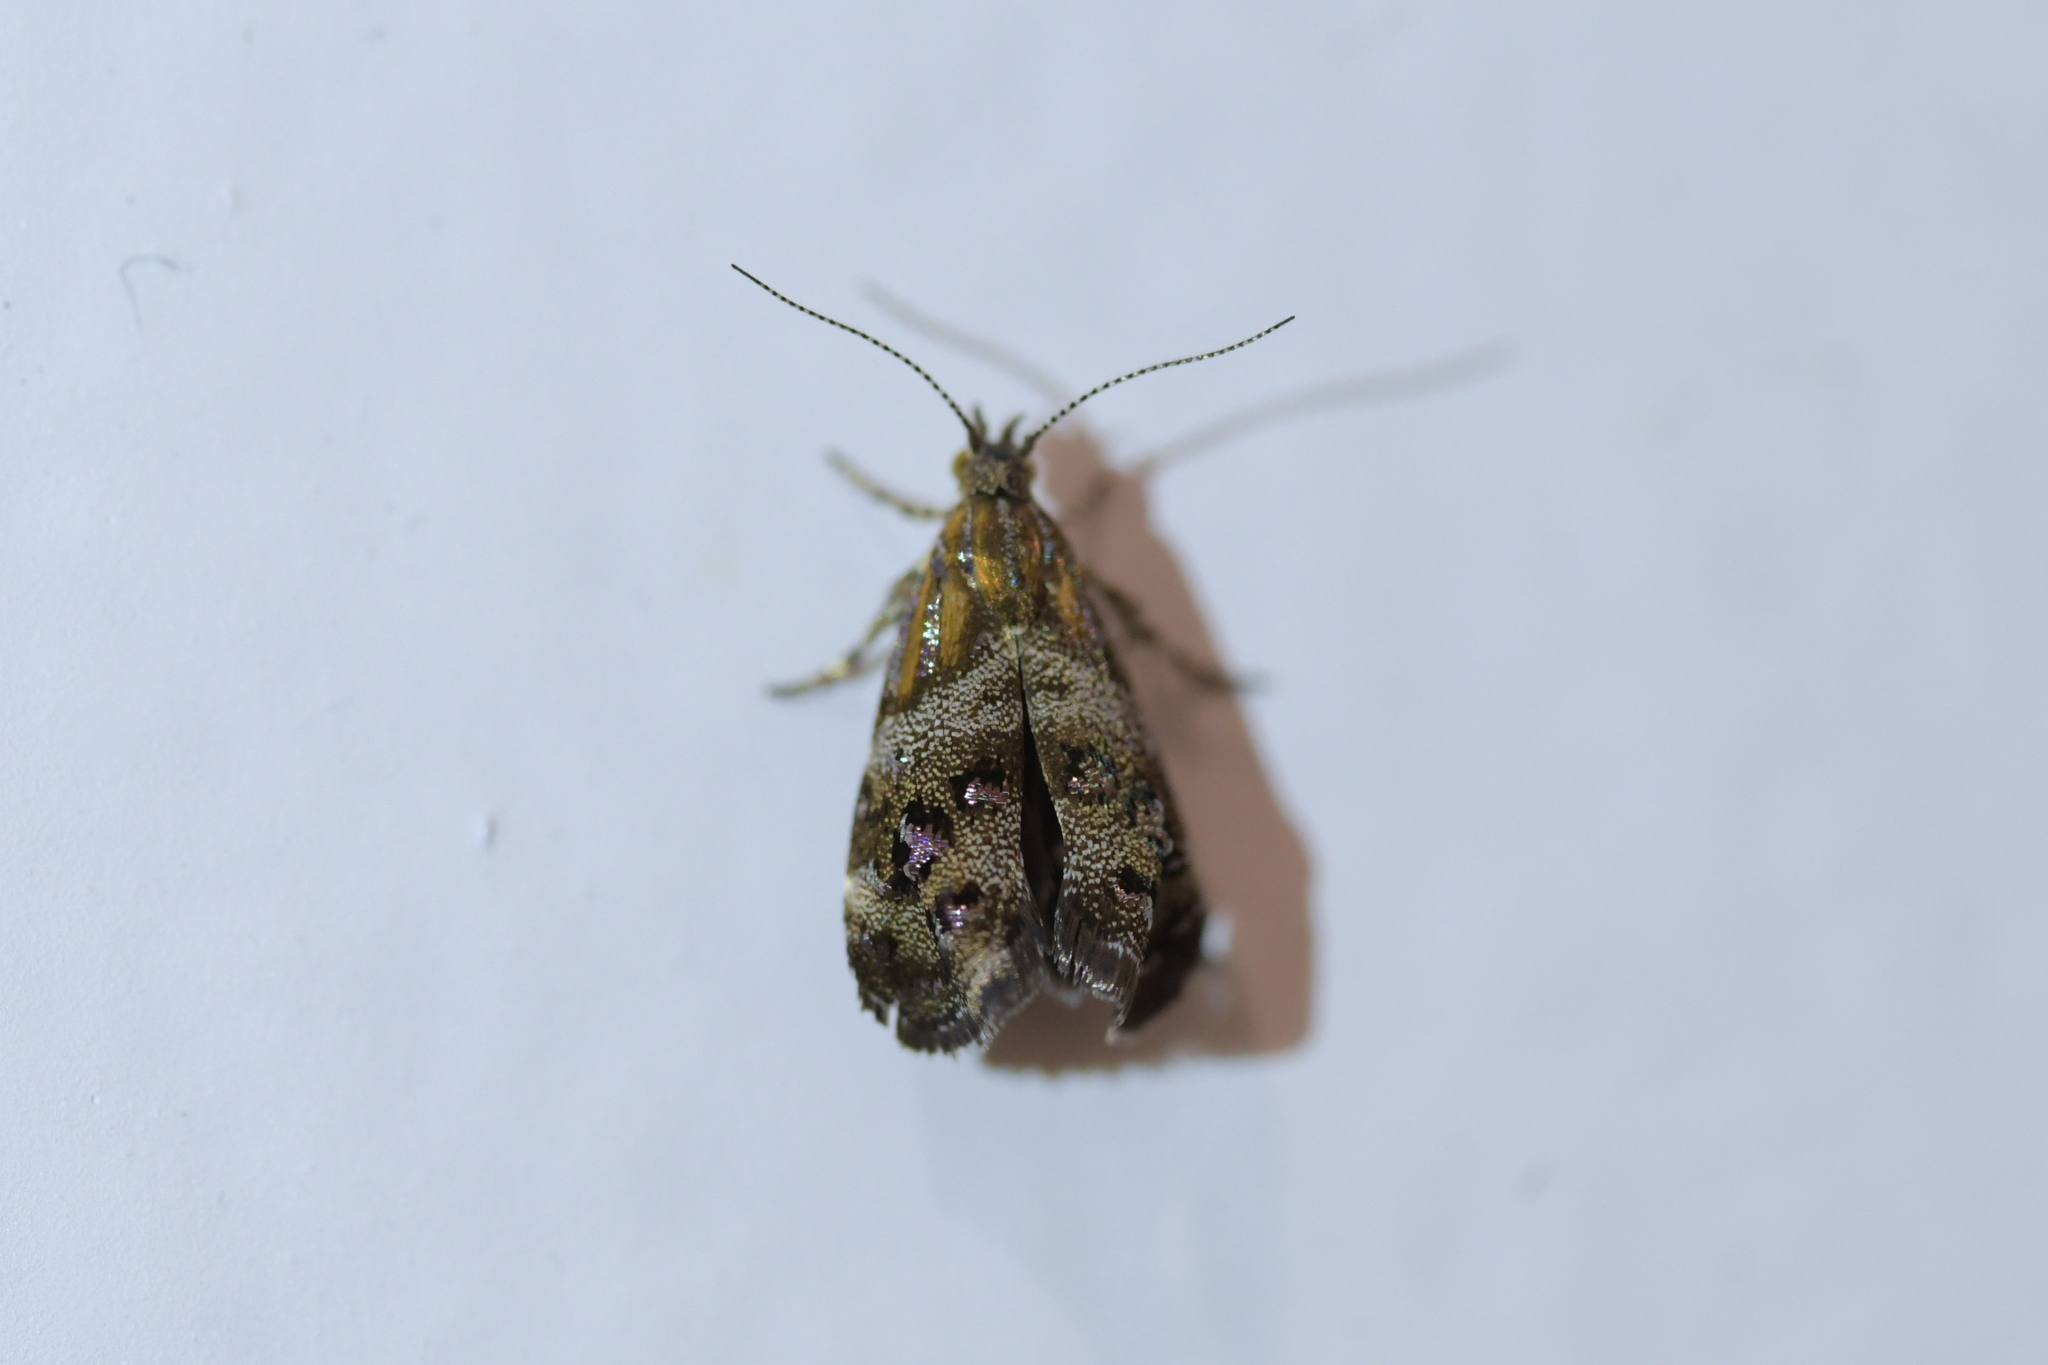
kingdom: Animalia
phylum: Arthropoda
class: Insecta
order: Lepidoptera
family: Choreutidae
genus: Tebenna
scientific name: Tebenna micalis
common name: Vagrant twitcher
